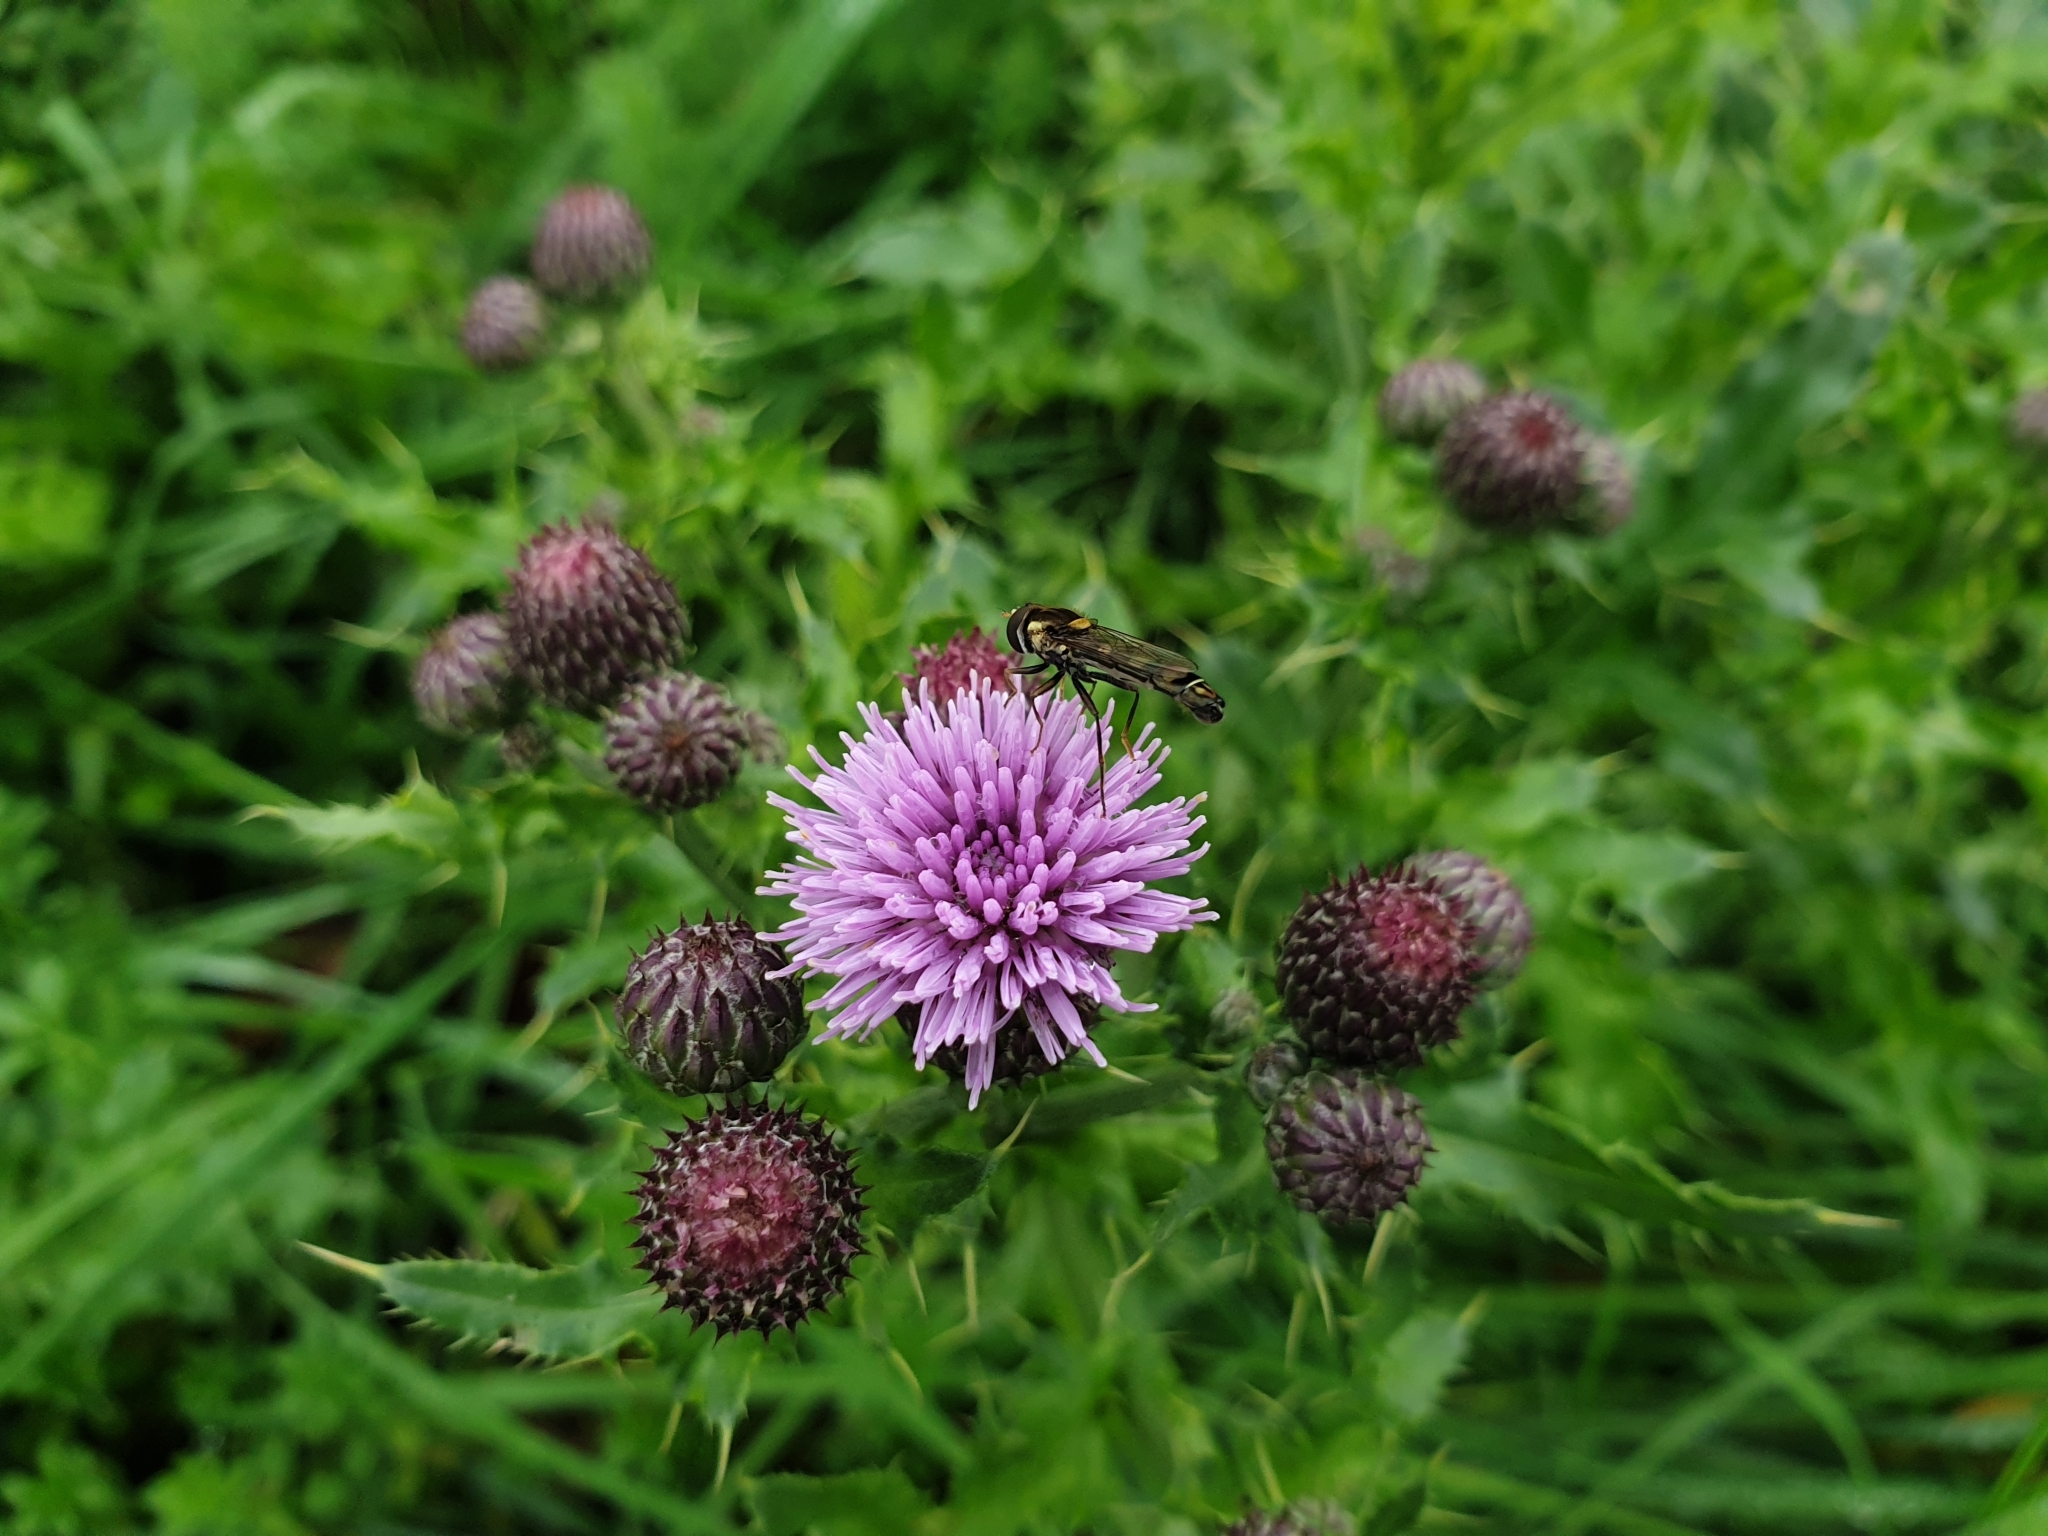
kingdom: Animalia
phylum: Arthropoda
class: Insecta
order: Diptera
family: Syrphidae
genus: Sphaerophoria
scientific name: Sphaerophoria scripta
